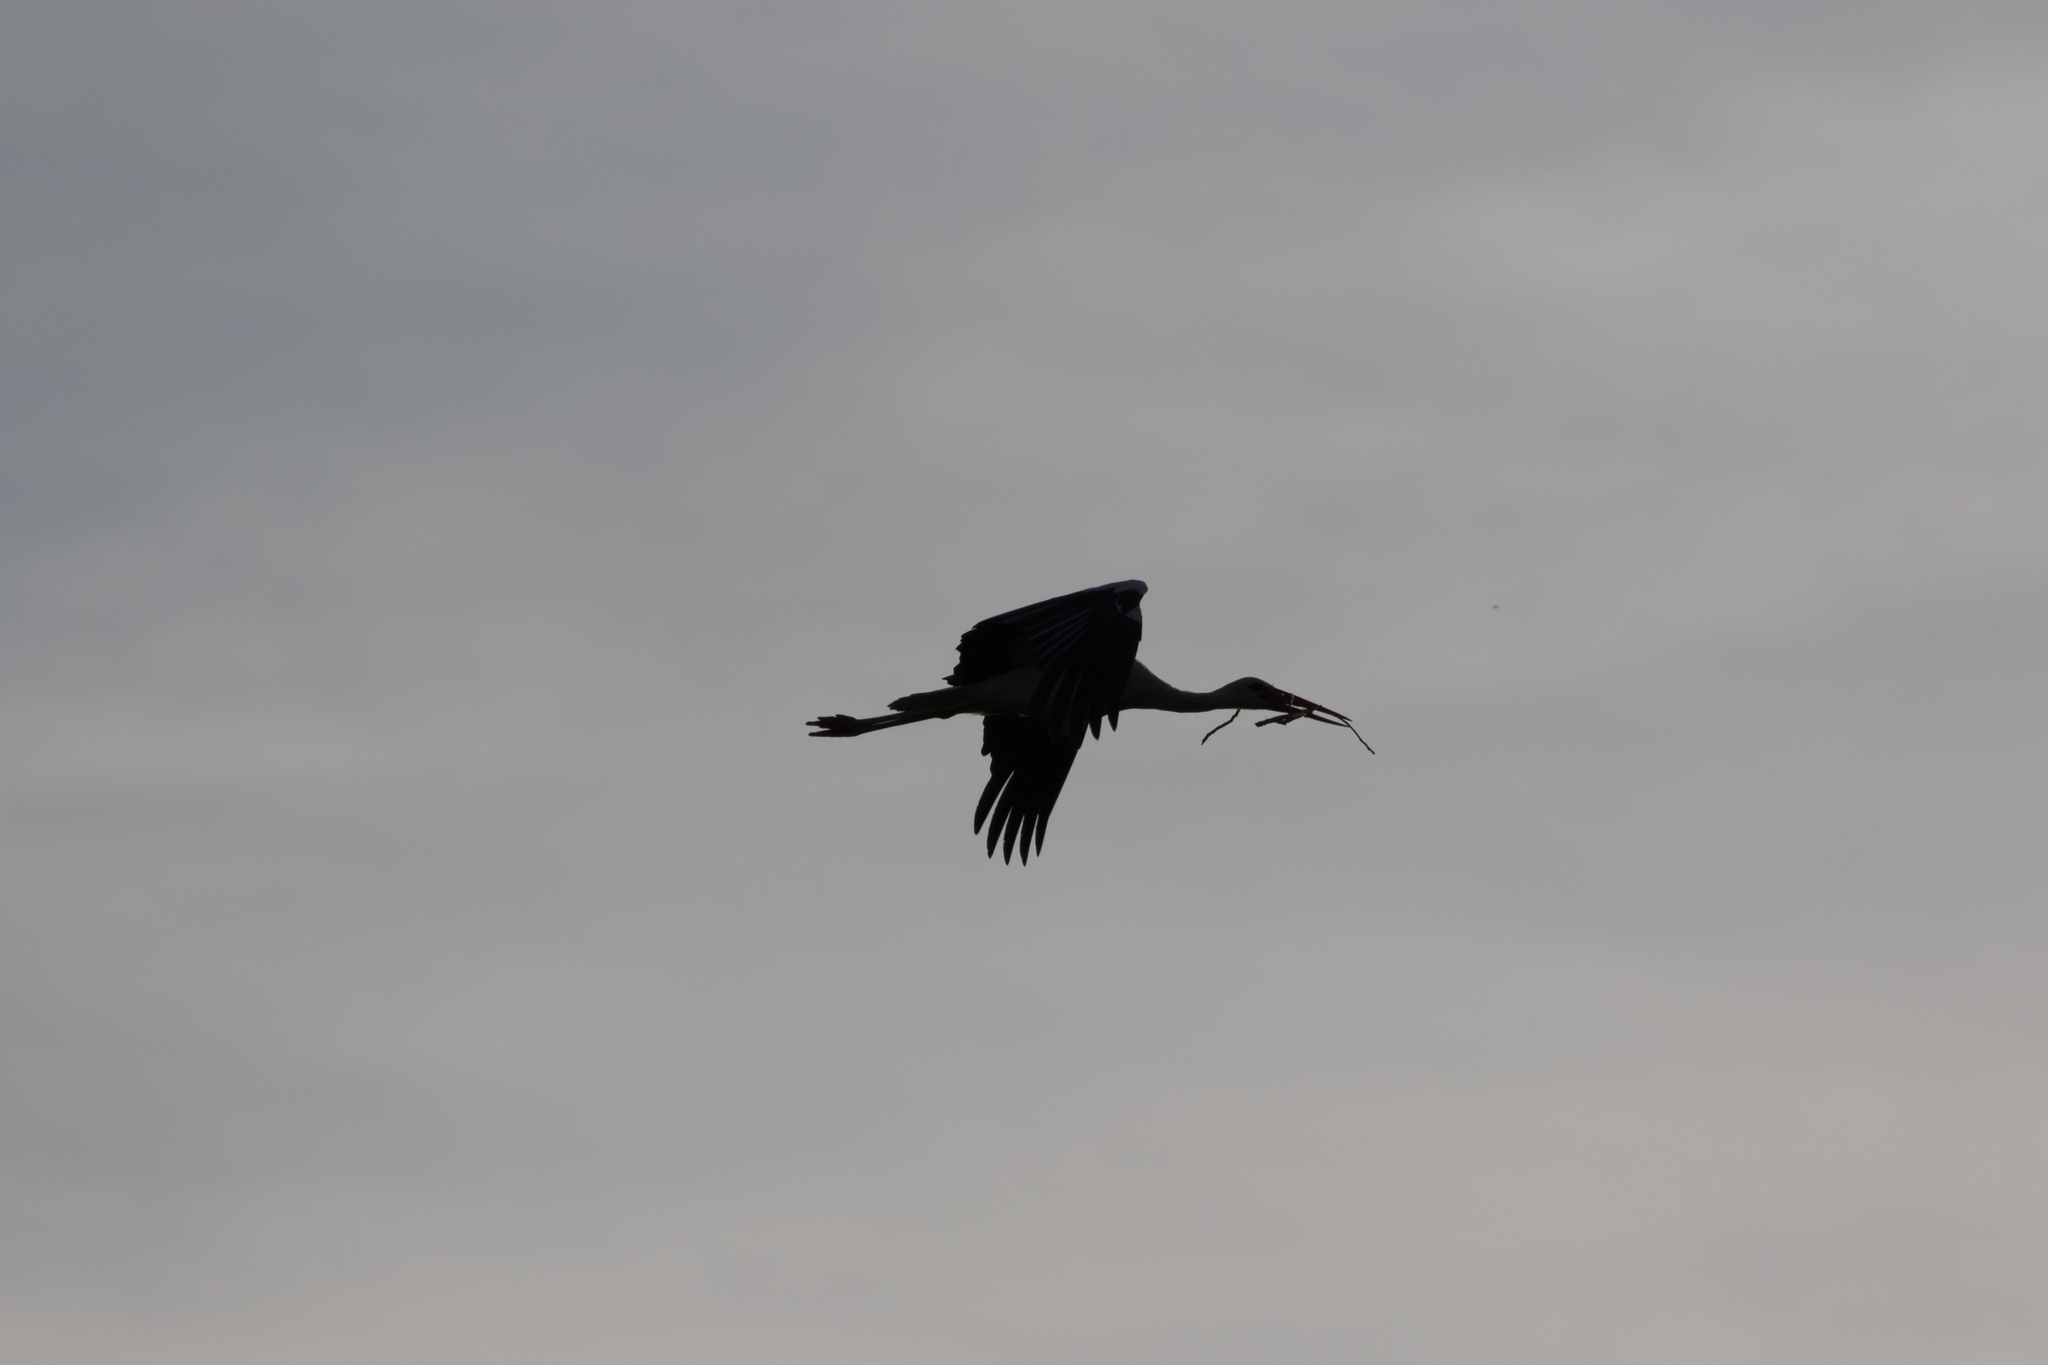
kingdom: Animalia
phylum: Chordata
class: Aves
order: Ciconiiformes
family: Ciconiidae
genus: Ciconia
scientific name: Ciconia ciconia
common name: White stork
